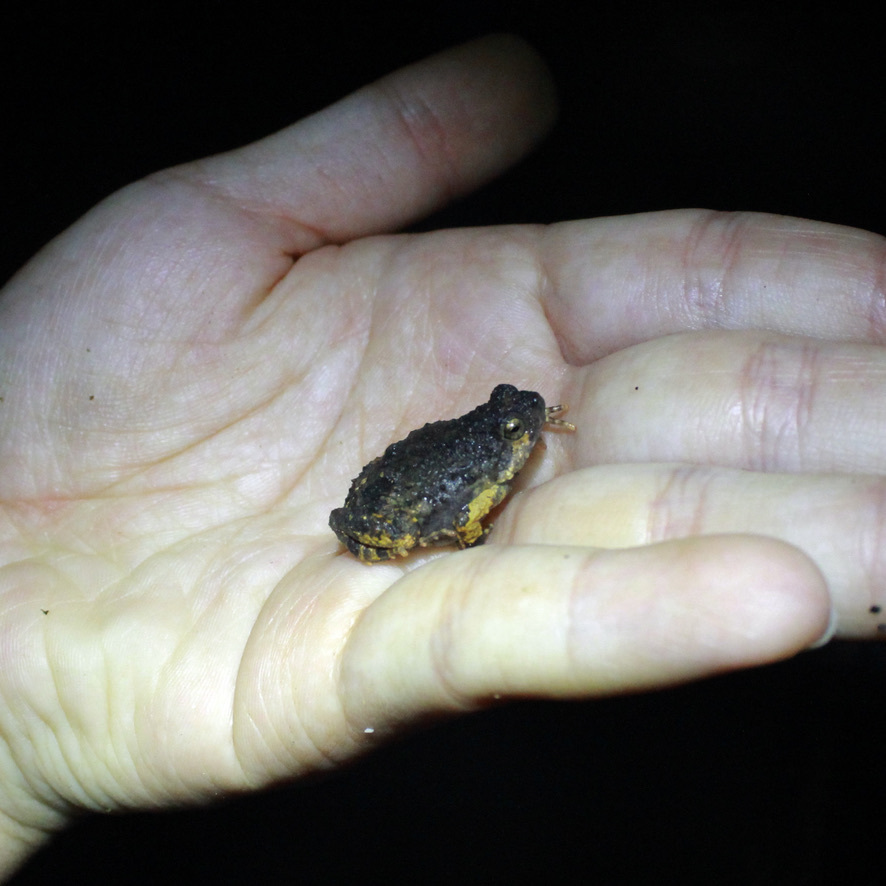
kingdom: Animalia
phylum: Chordata
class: Amphibia
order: Anura
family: Leptodactylidae
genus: Engystomops
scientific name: Engystomops pustulosus
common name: Tungara frog
